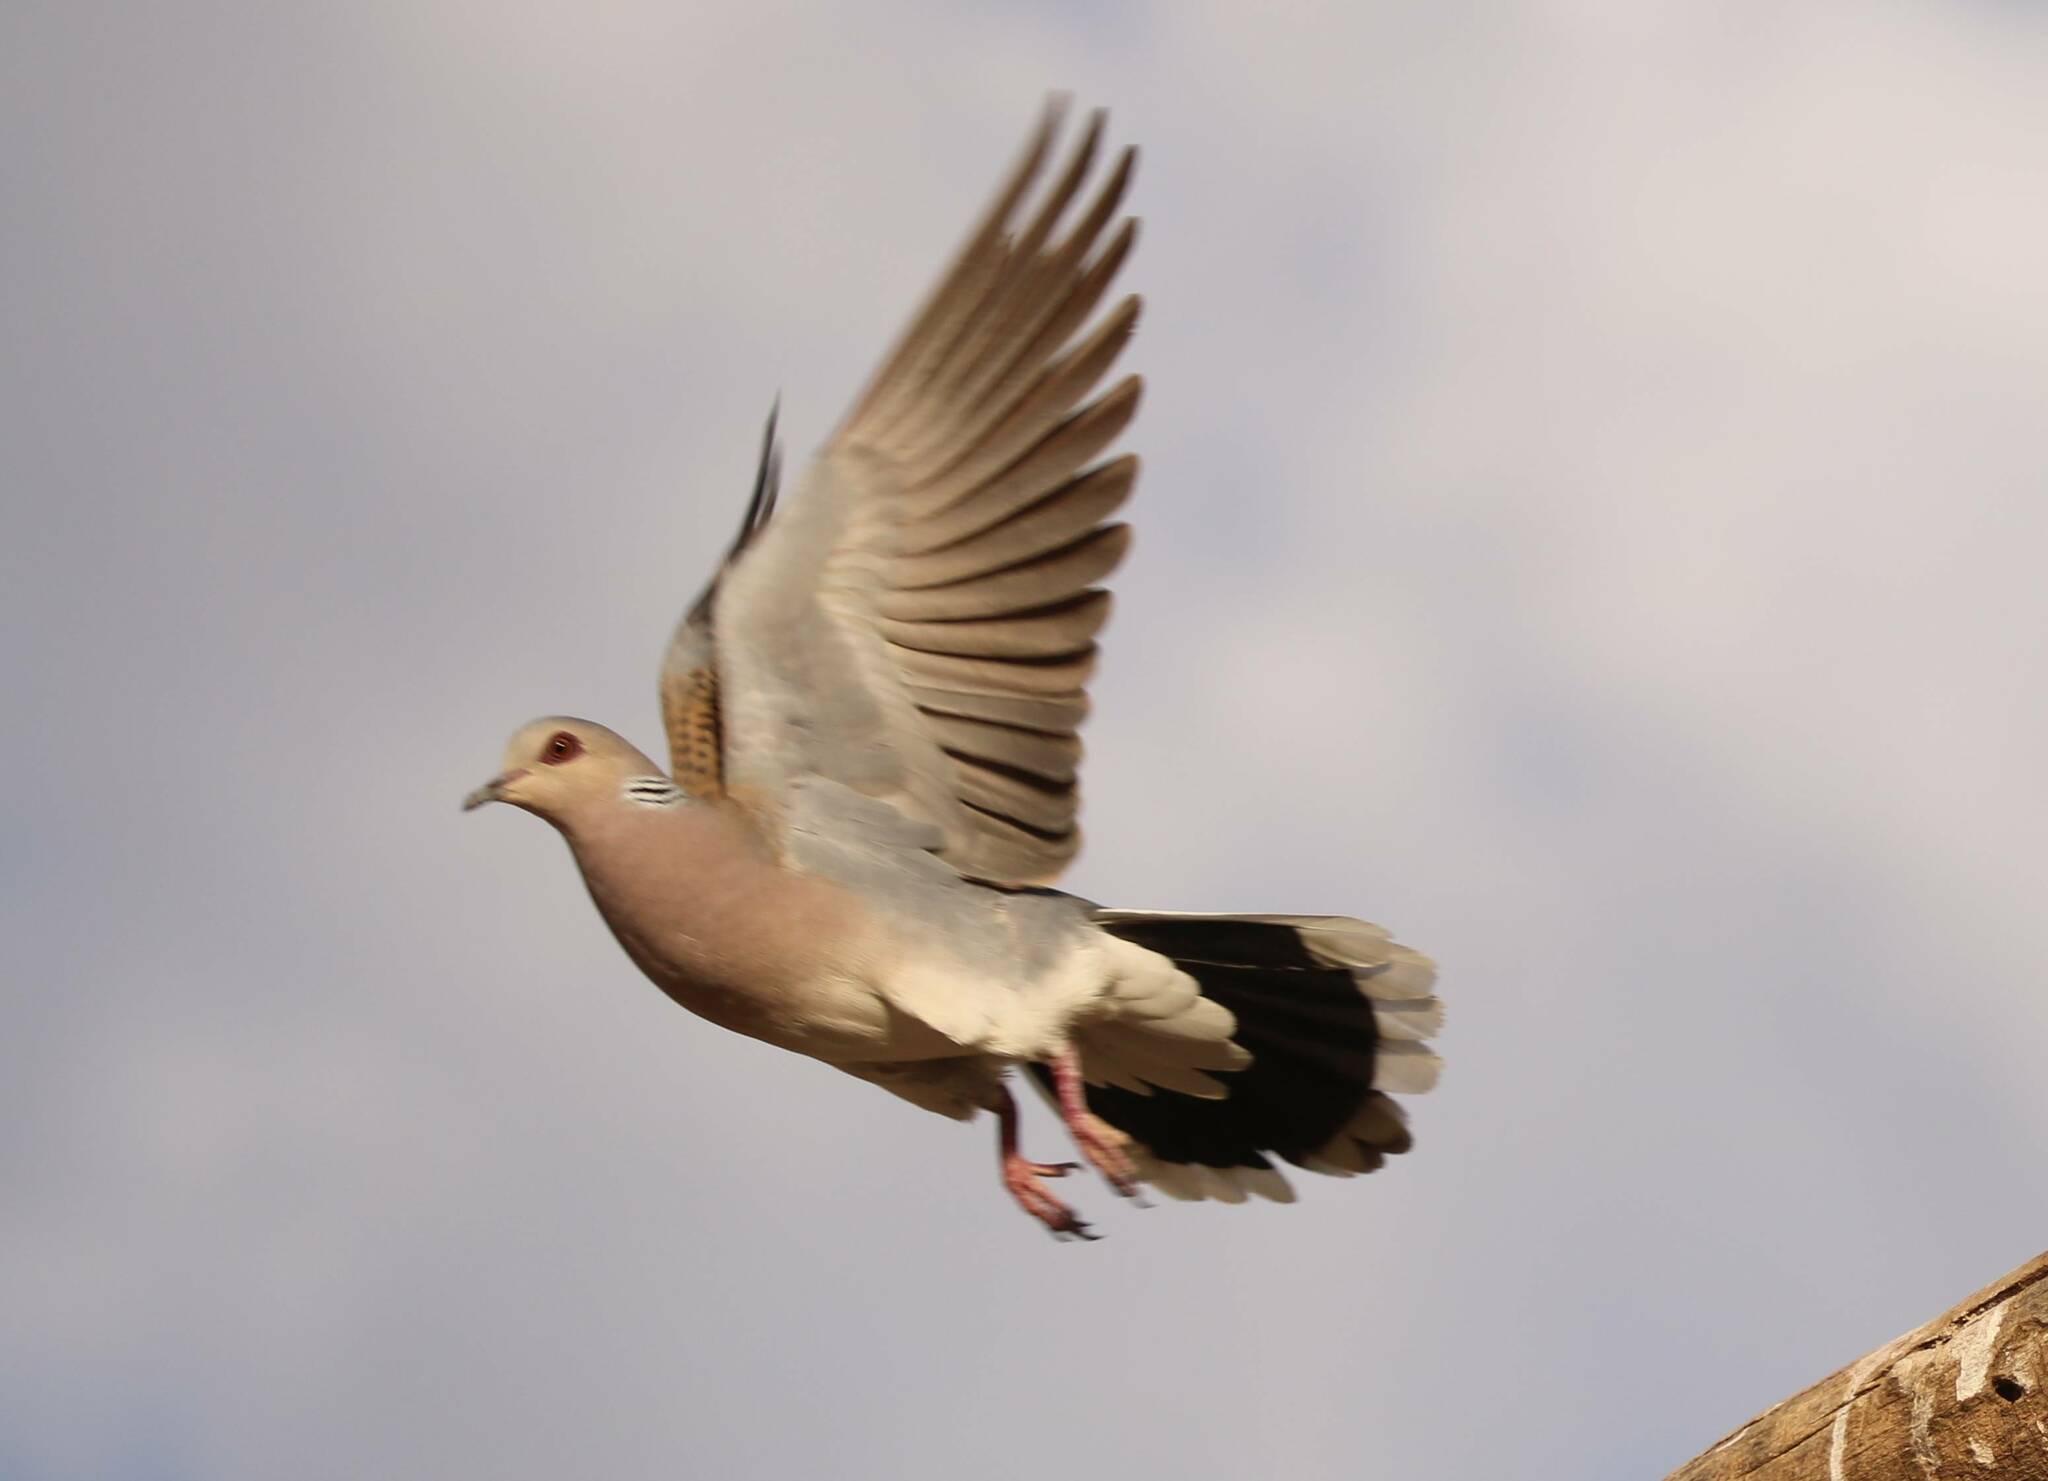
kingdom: Animalia
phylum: Chordata
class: Aves
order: Columbiformes
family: Columbidae
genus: Streptopelia
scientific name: Streptopelia turtur
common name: European turtle dove
